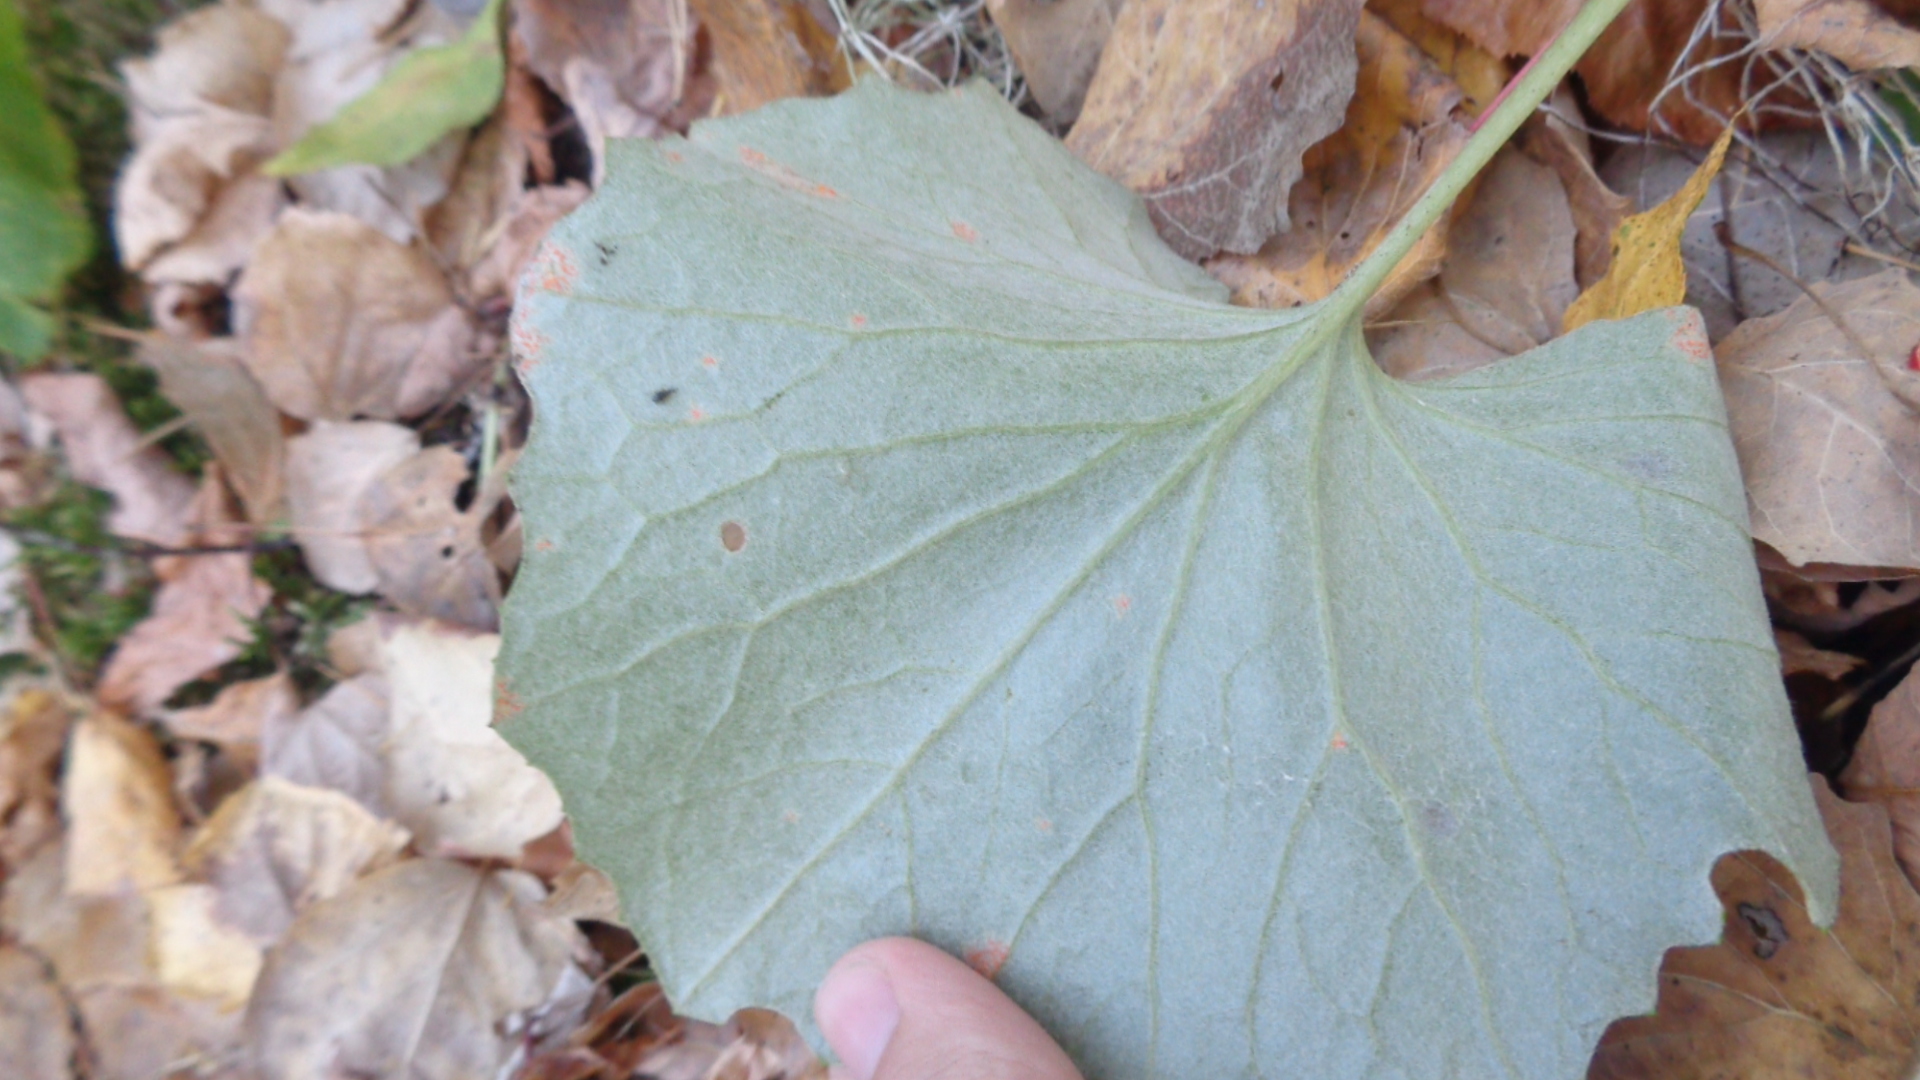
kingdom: Plantae
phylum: Tracheophyta
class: Magnoliopsida
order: Asterales
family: Asteraceae
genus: Tussilago
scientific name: Tussilago farfara
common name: Coltsfoot
